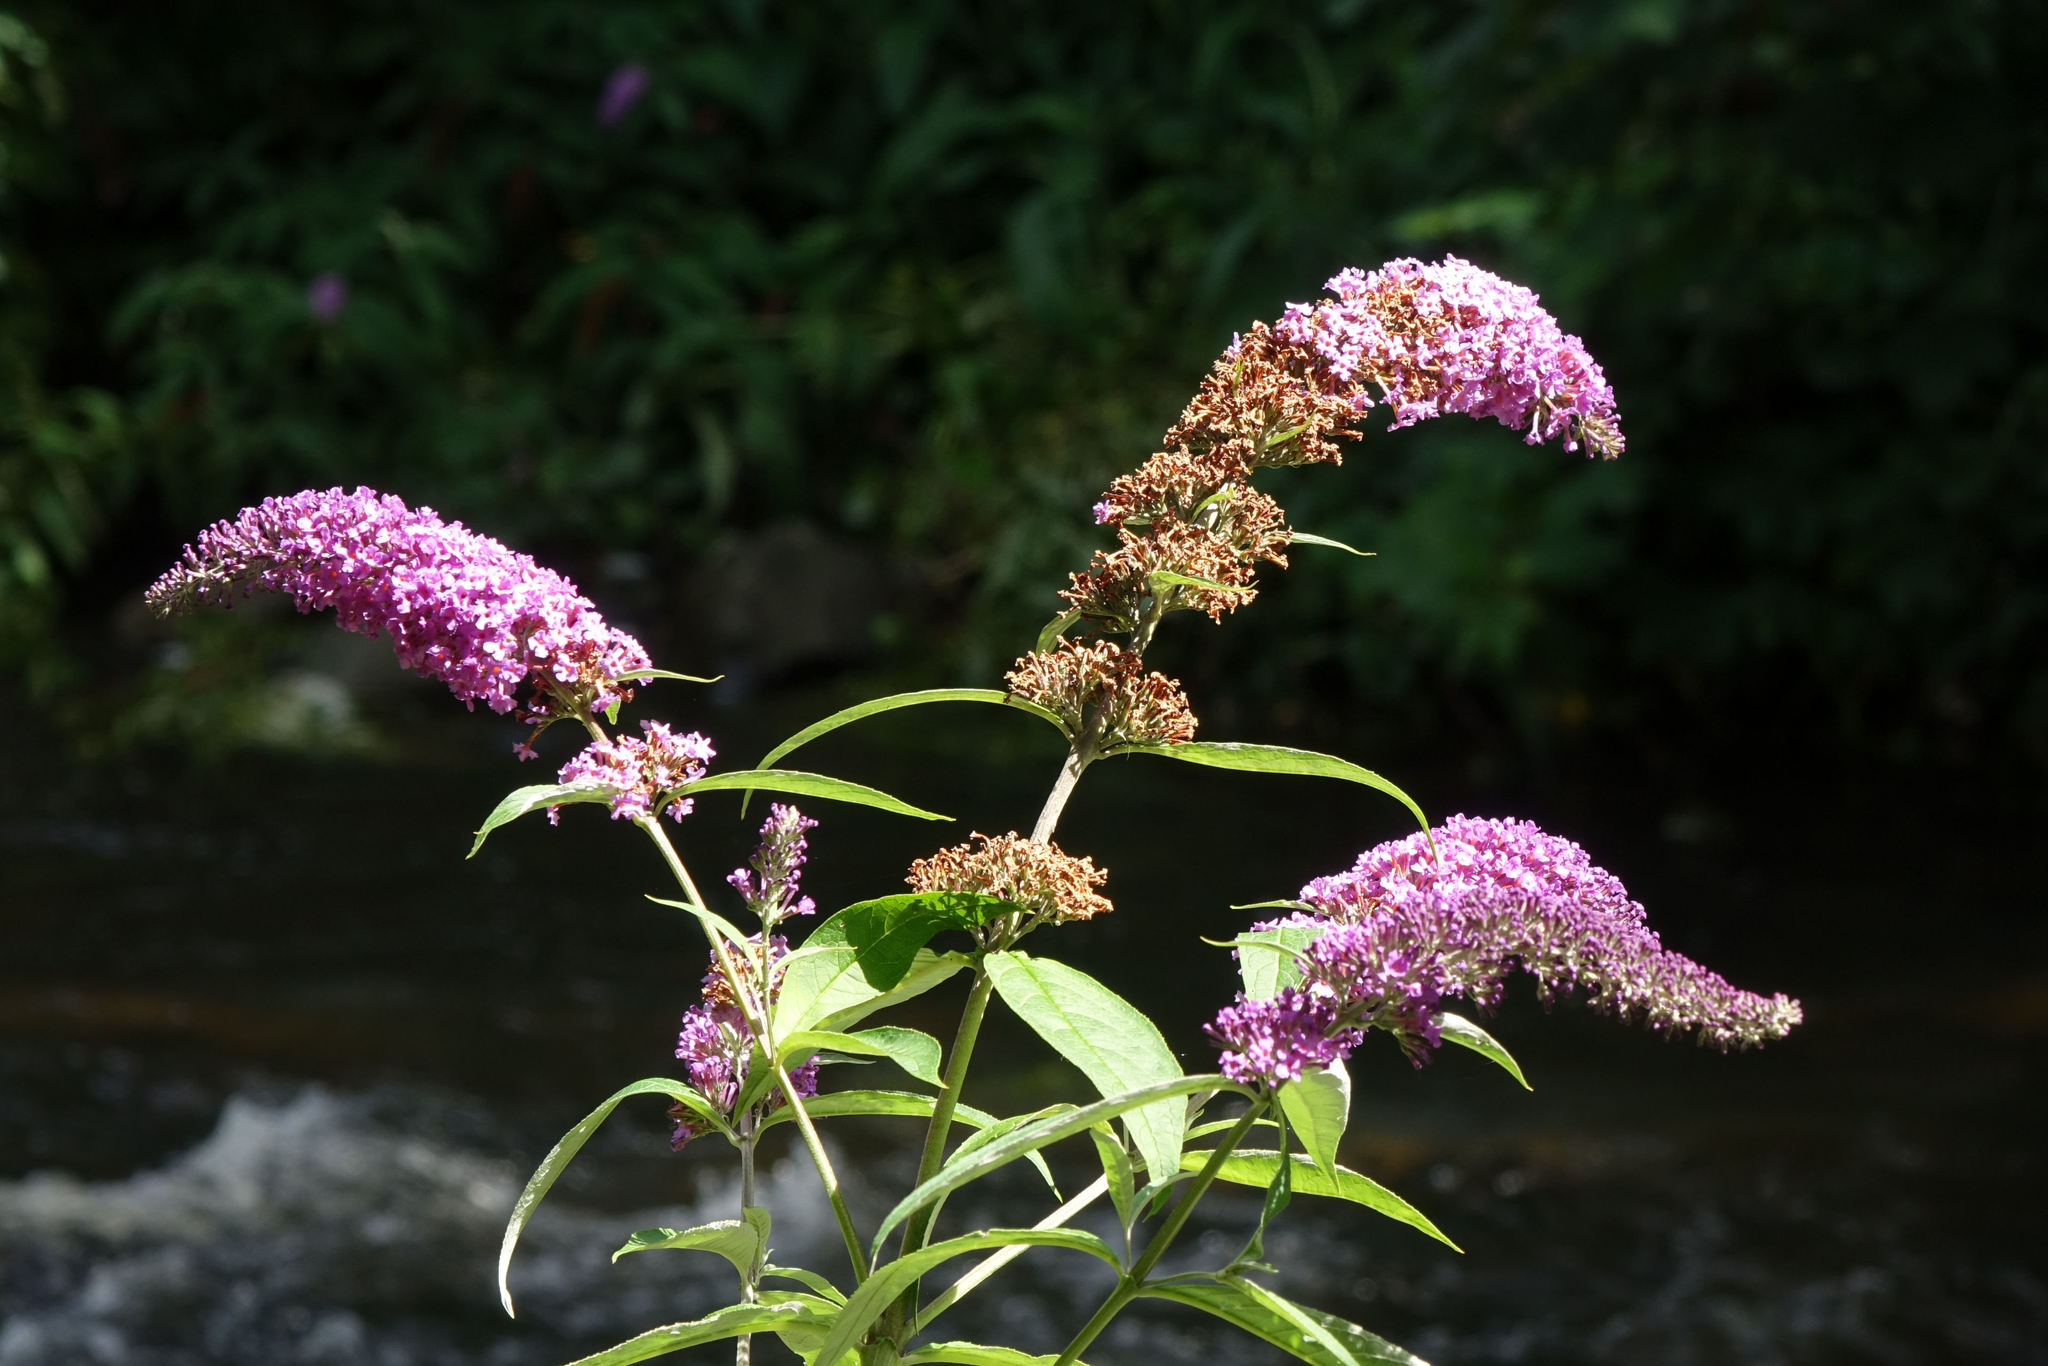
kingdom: Plantae
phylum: Tracheophyta
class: Magnoliopsida
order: Lamiales
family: Scrophulariaceae
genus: Buddleja
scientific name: Buddleja davidii
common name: Butterfly-bush
